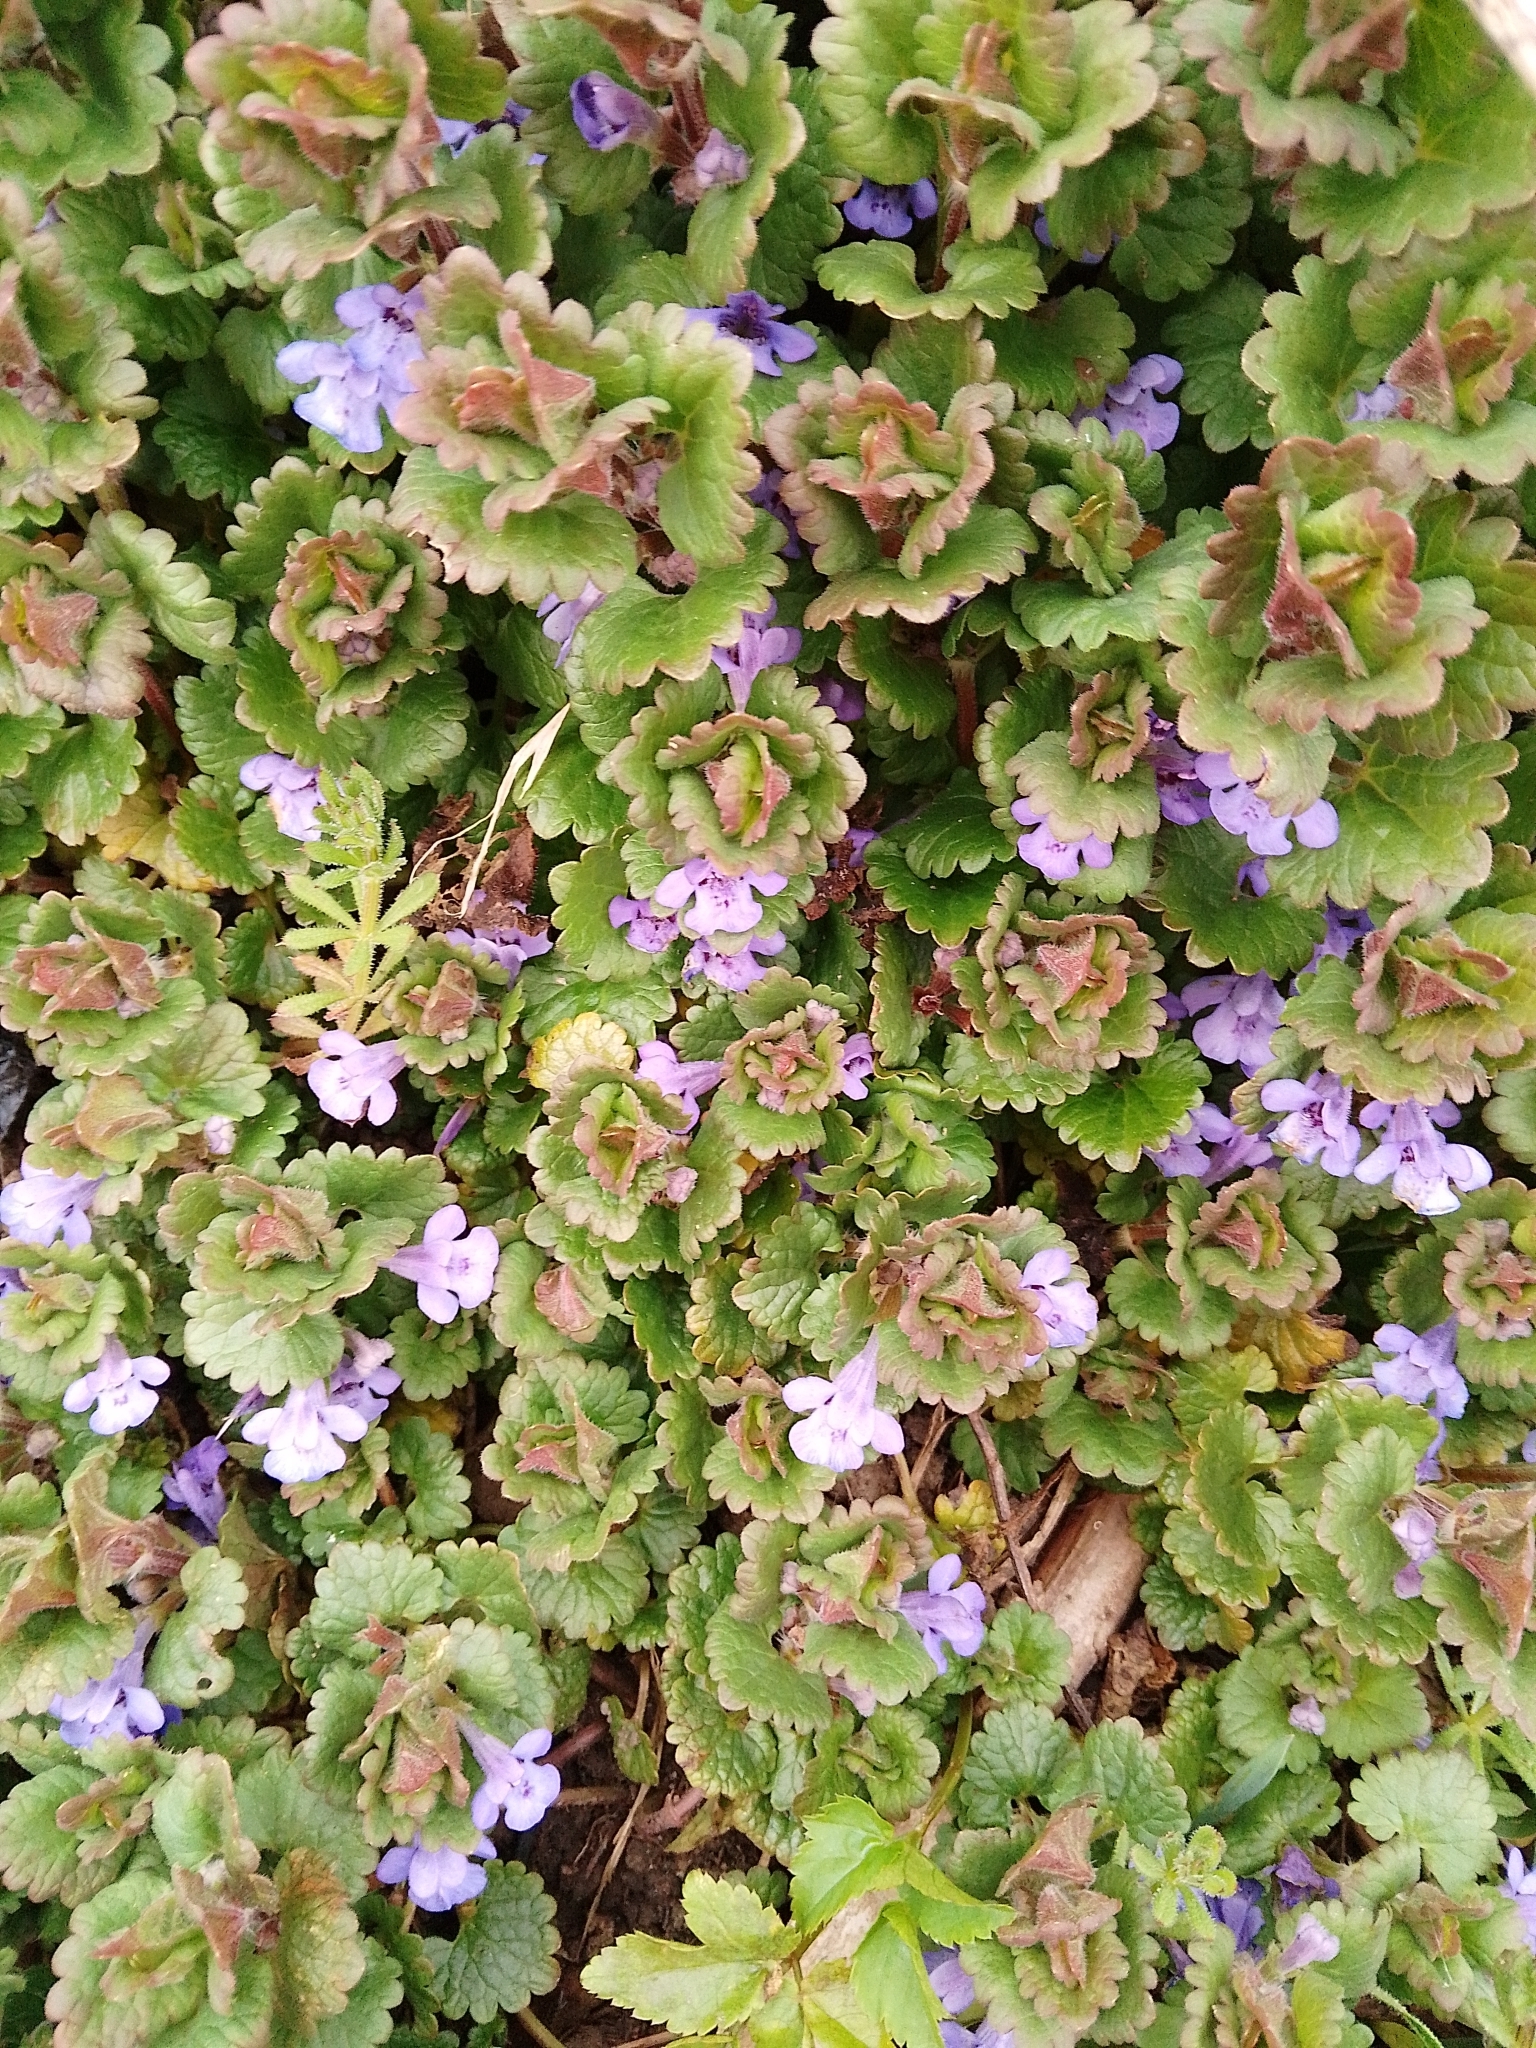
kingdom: Plantae
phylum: Tracheophyta
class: Magnoliopsida
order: Lamiales
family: Lamiaceae
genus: Glechoma
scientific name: Glechoma hederacea
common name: Ground ivy
